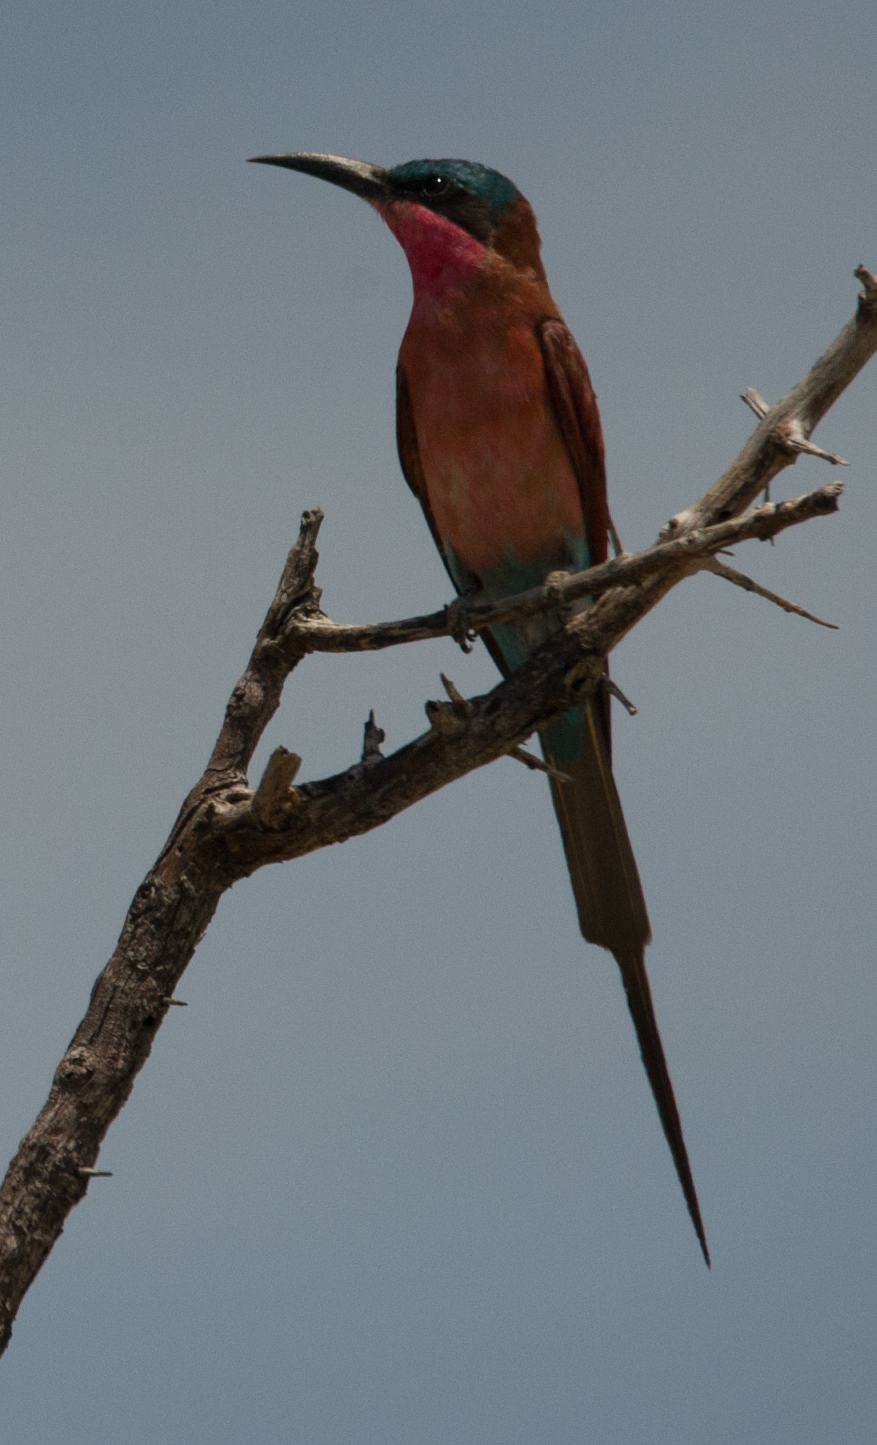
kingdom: Animalia
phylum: Chordata
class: Aves
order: Coraciiformes
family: Meropidae
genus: Merops
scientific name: Merops nubicoides
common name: Southern carmine bee-eater
